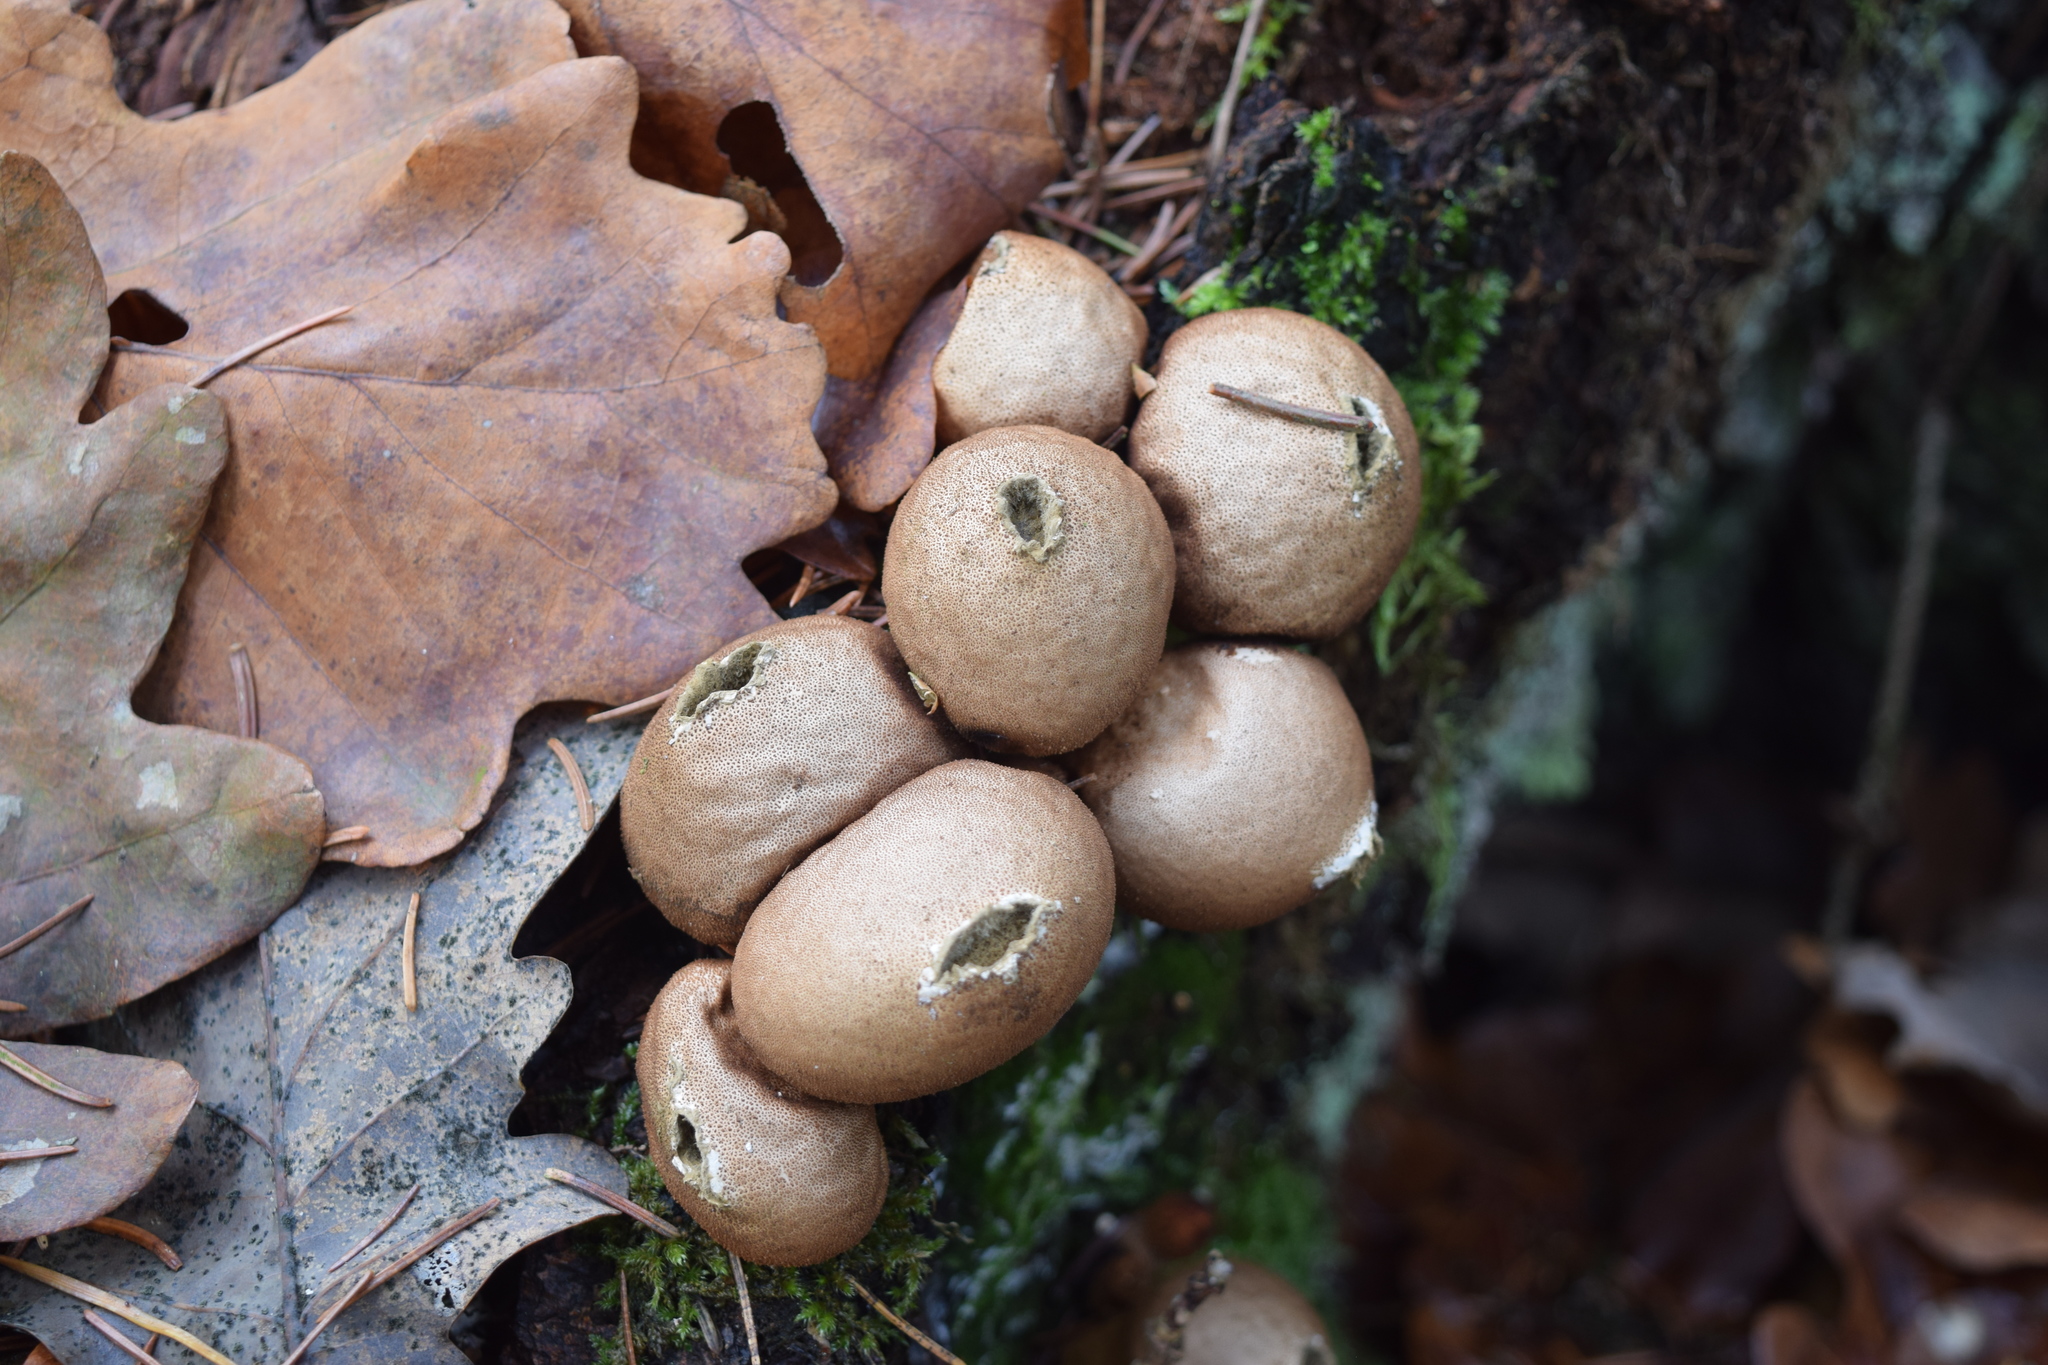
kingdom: Fungi
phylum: Basidiomycota
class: Agaricomycetes
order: Agaricales
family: Lycoperdaceae
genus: Apioperdon
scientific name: Apioperdon pyriforme
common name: Pear-shaped puffball
